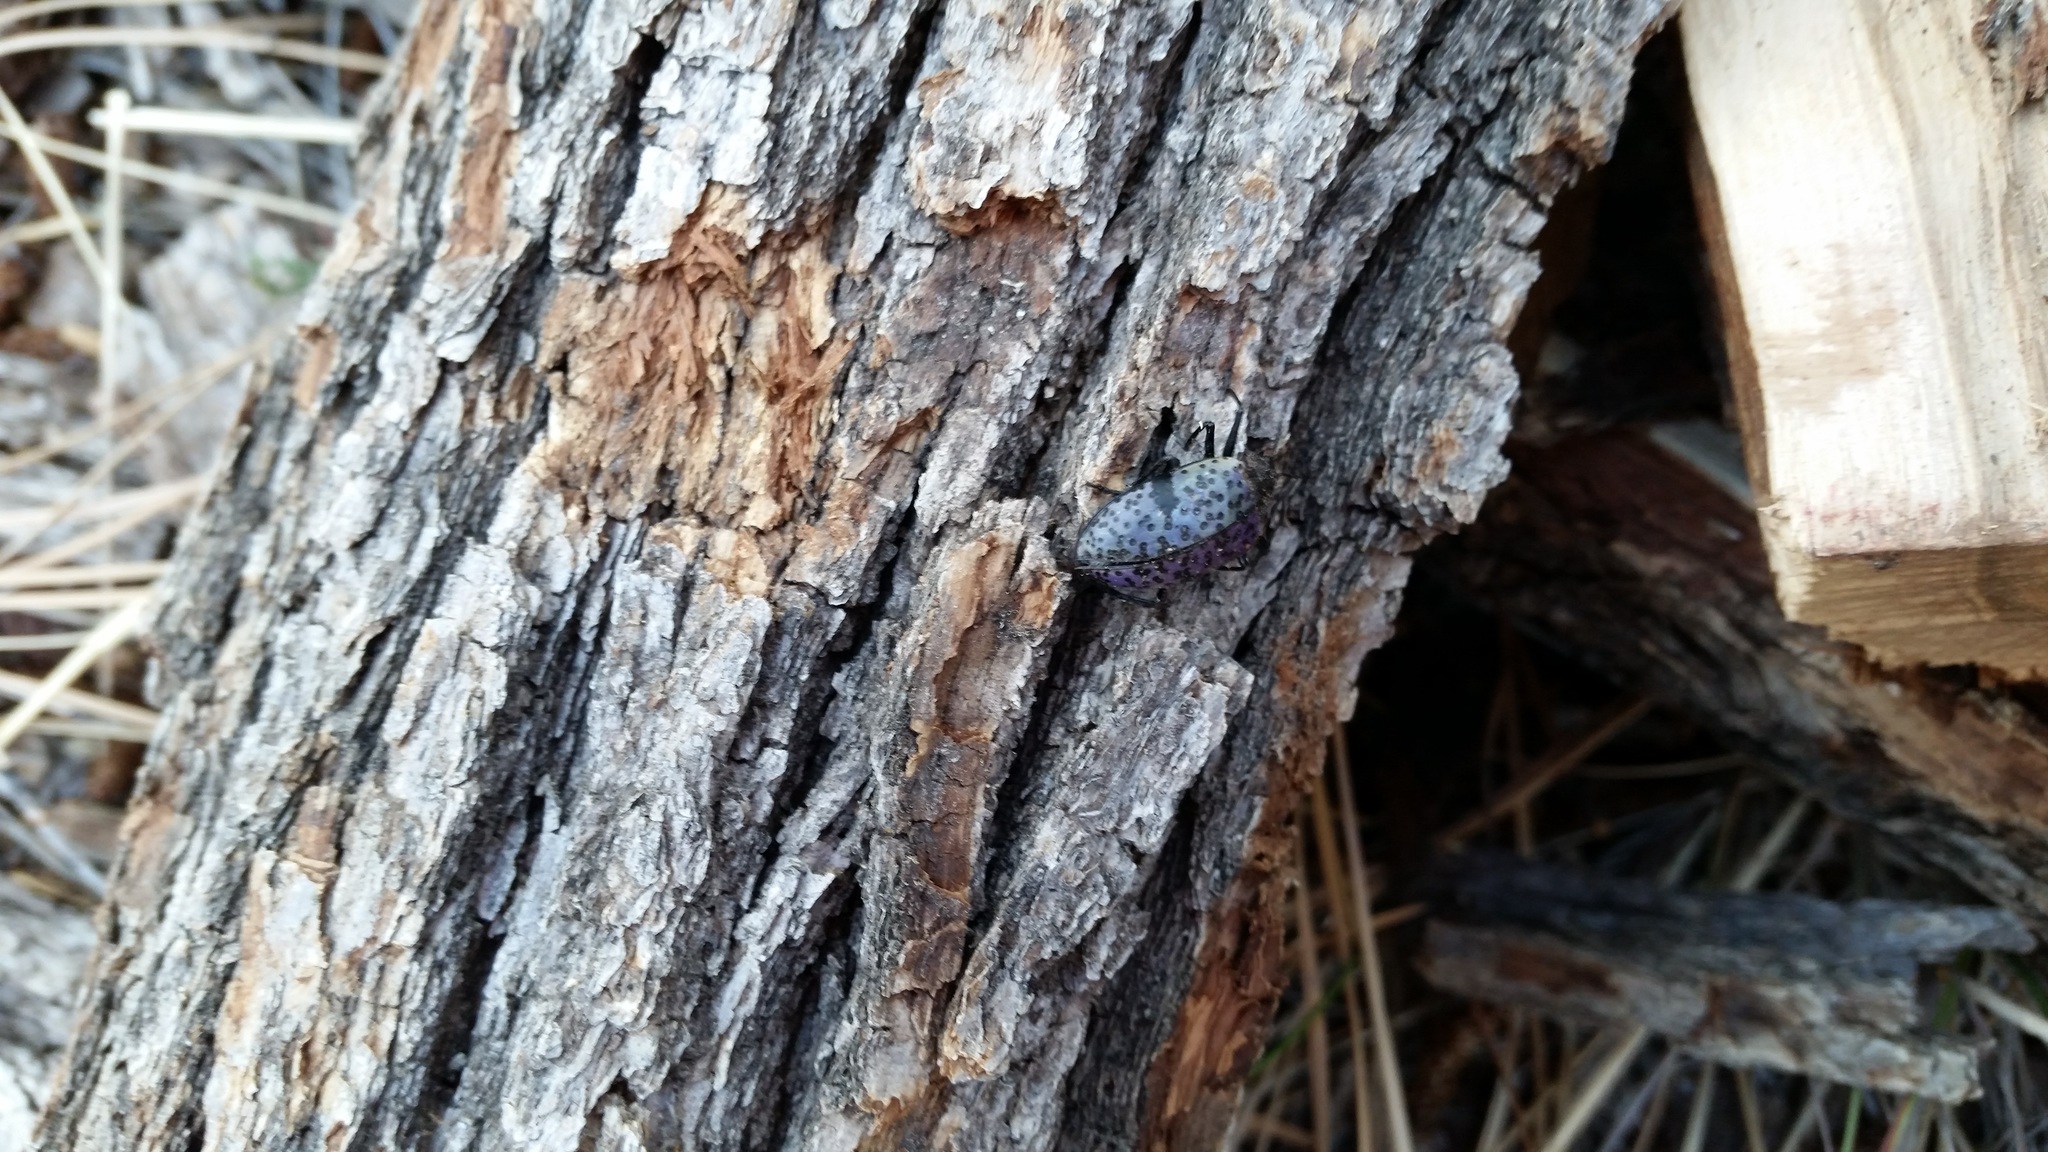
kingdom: Animalia
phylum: Arthropoda
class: Insecta
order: Coleoptera
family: Erotylidae
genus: Gibbifer
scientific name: Gibbifer californicus
